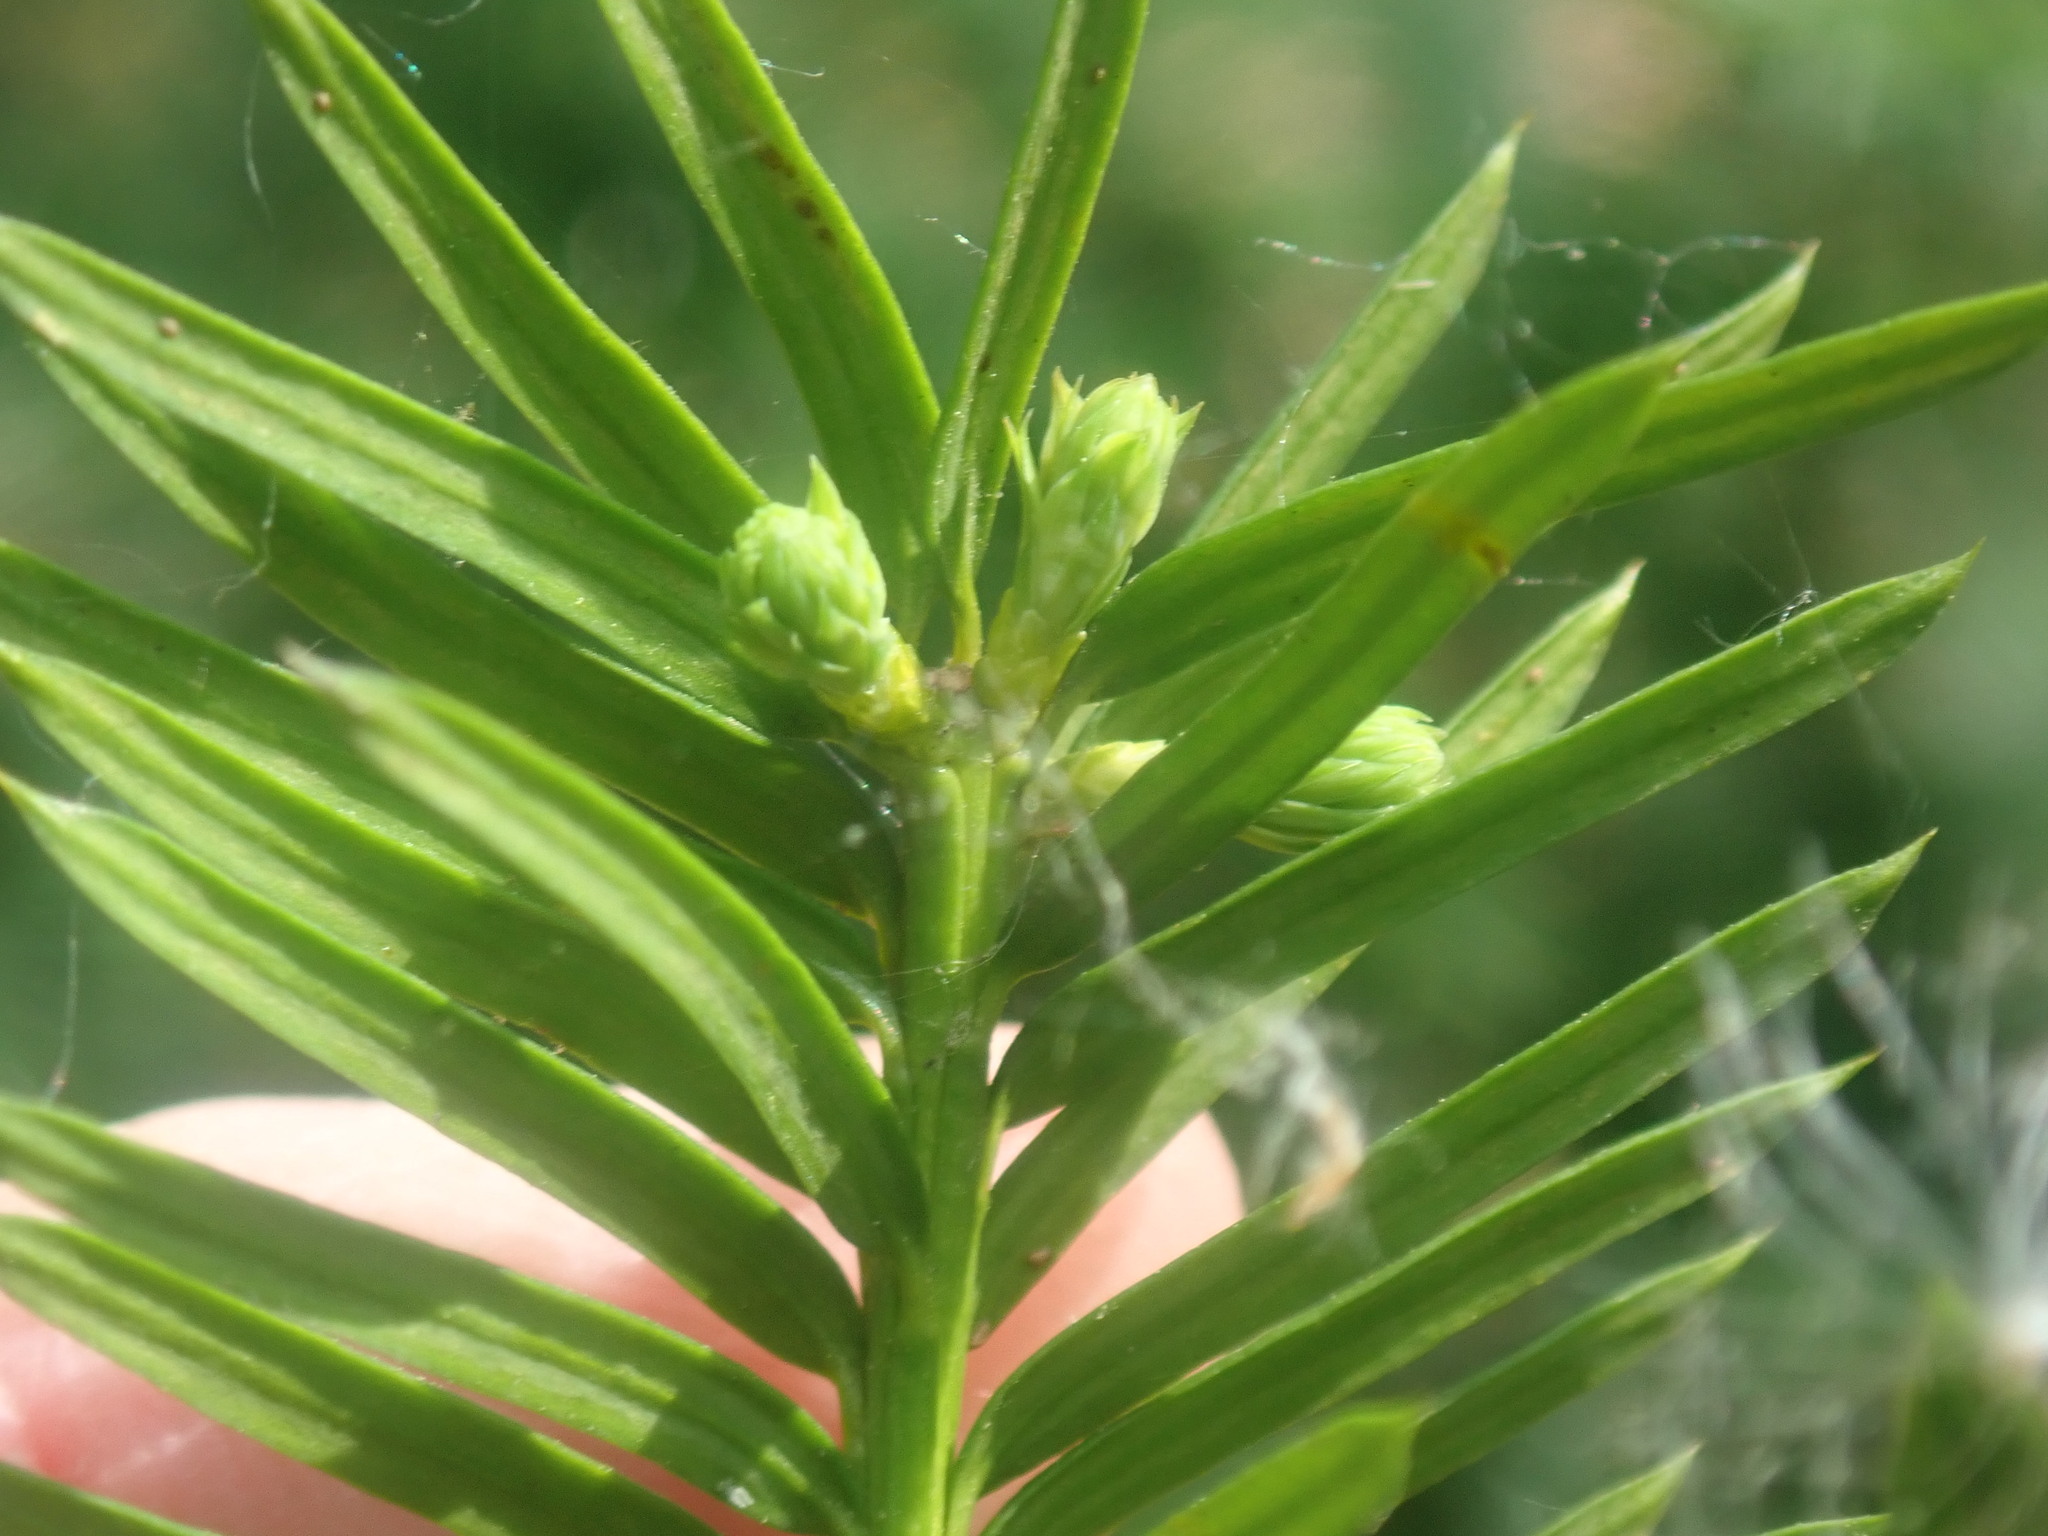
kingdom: Plantae
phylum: Tracheophyta
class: Pinopsida
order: Pinales
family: Taxaceae
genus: Taxus
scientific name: Taxus canadensis
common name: American yew
